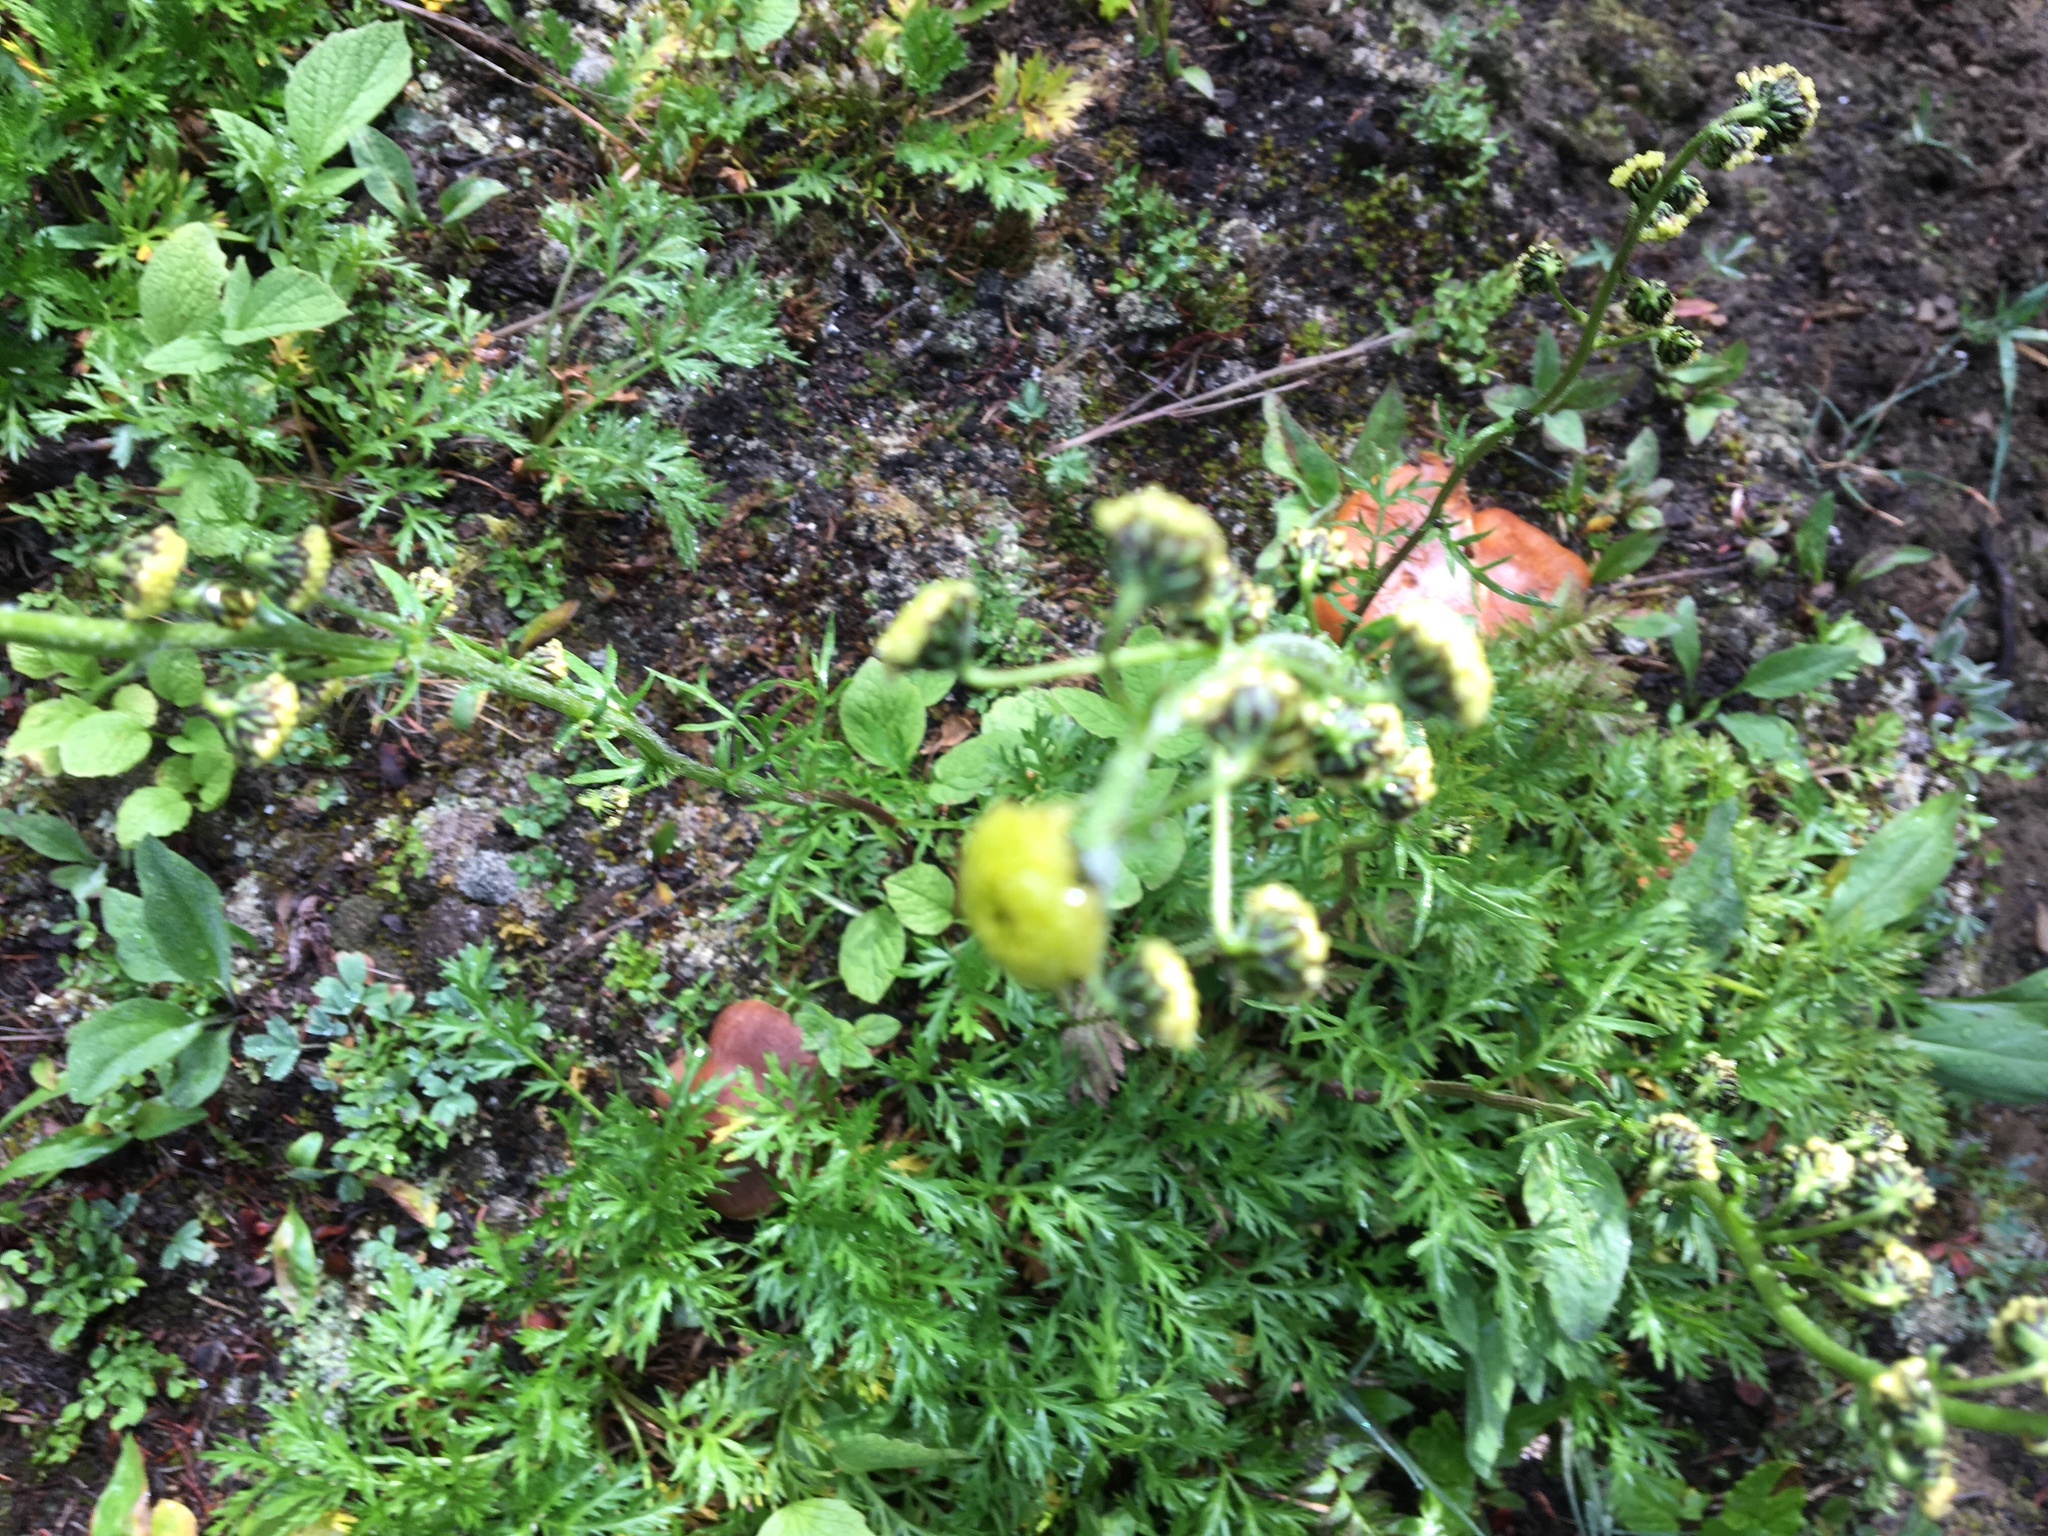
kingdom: Plantae
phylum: Tracheophyta
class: Magnoliopsida
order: Asterales
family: Asteraceae
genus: Artemisia
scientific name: Artemisia norvegica
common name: Norwegian mugwort
